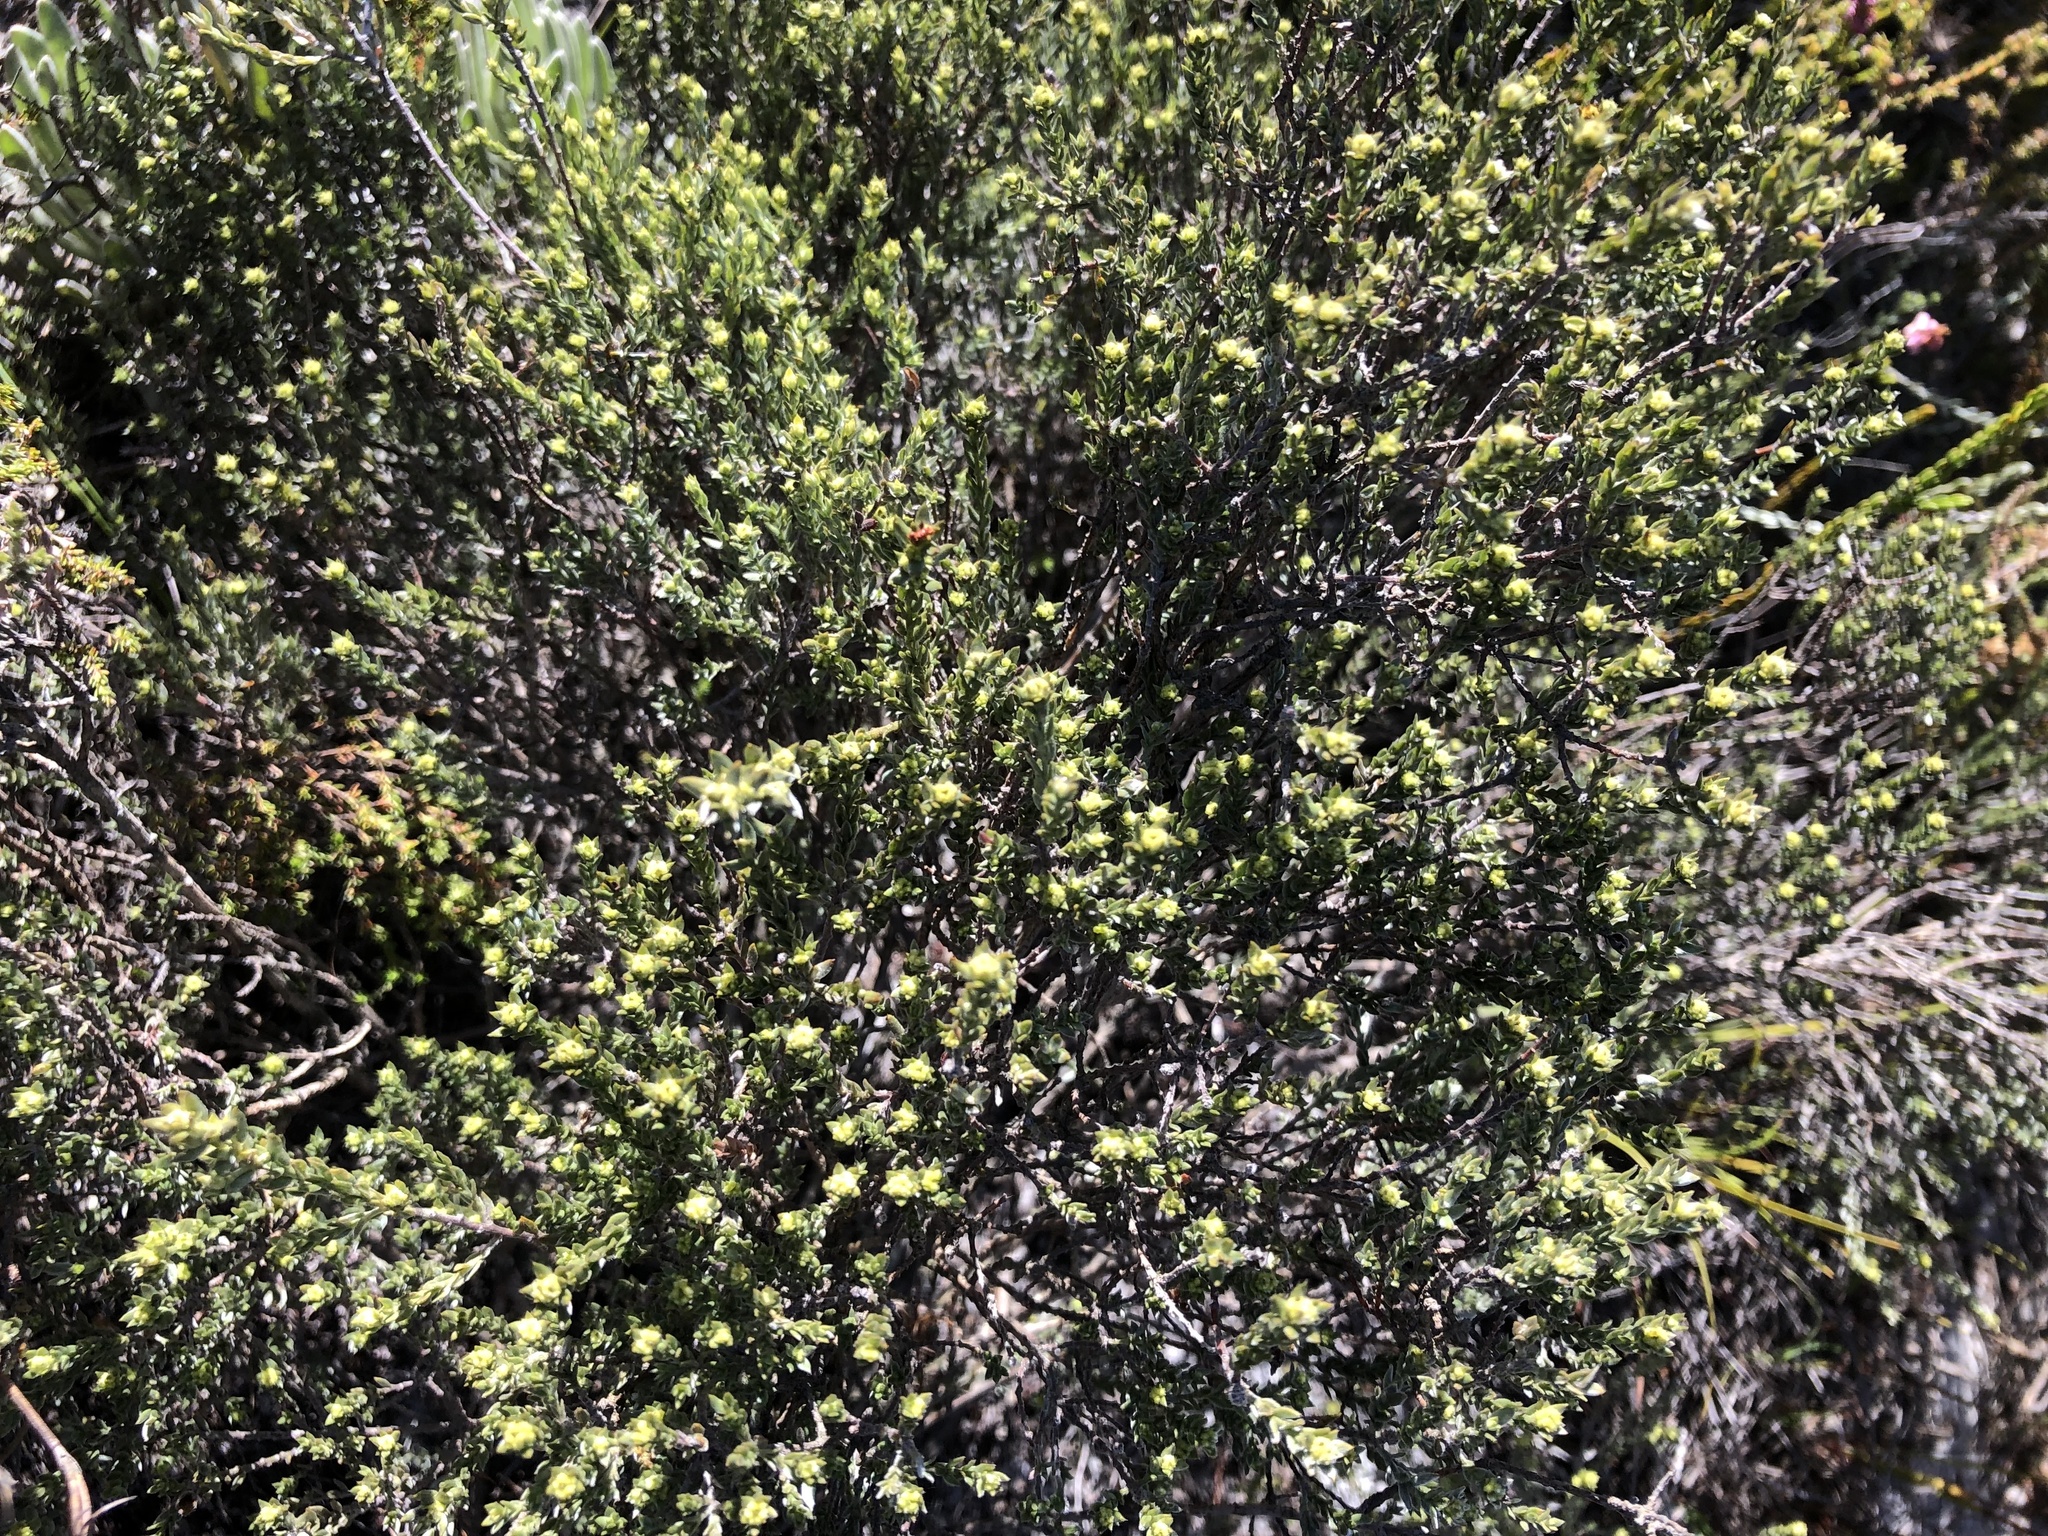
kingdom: Plantae
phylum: Tracheophyta
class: Magnoliopsida
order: Fabales
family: Fabaceae
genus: Amphithalea
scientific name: Amphithalea ericifolia
